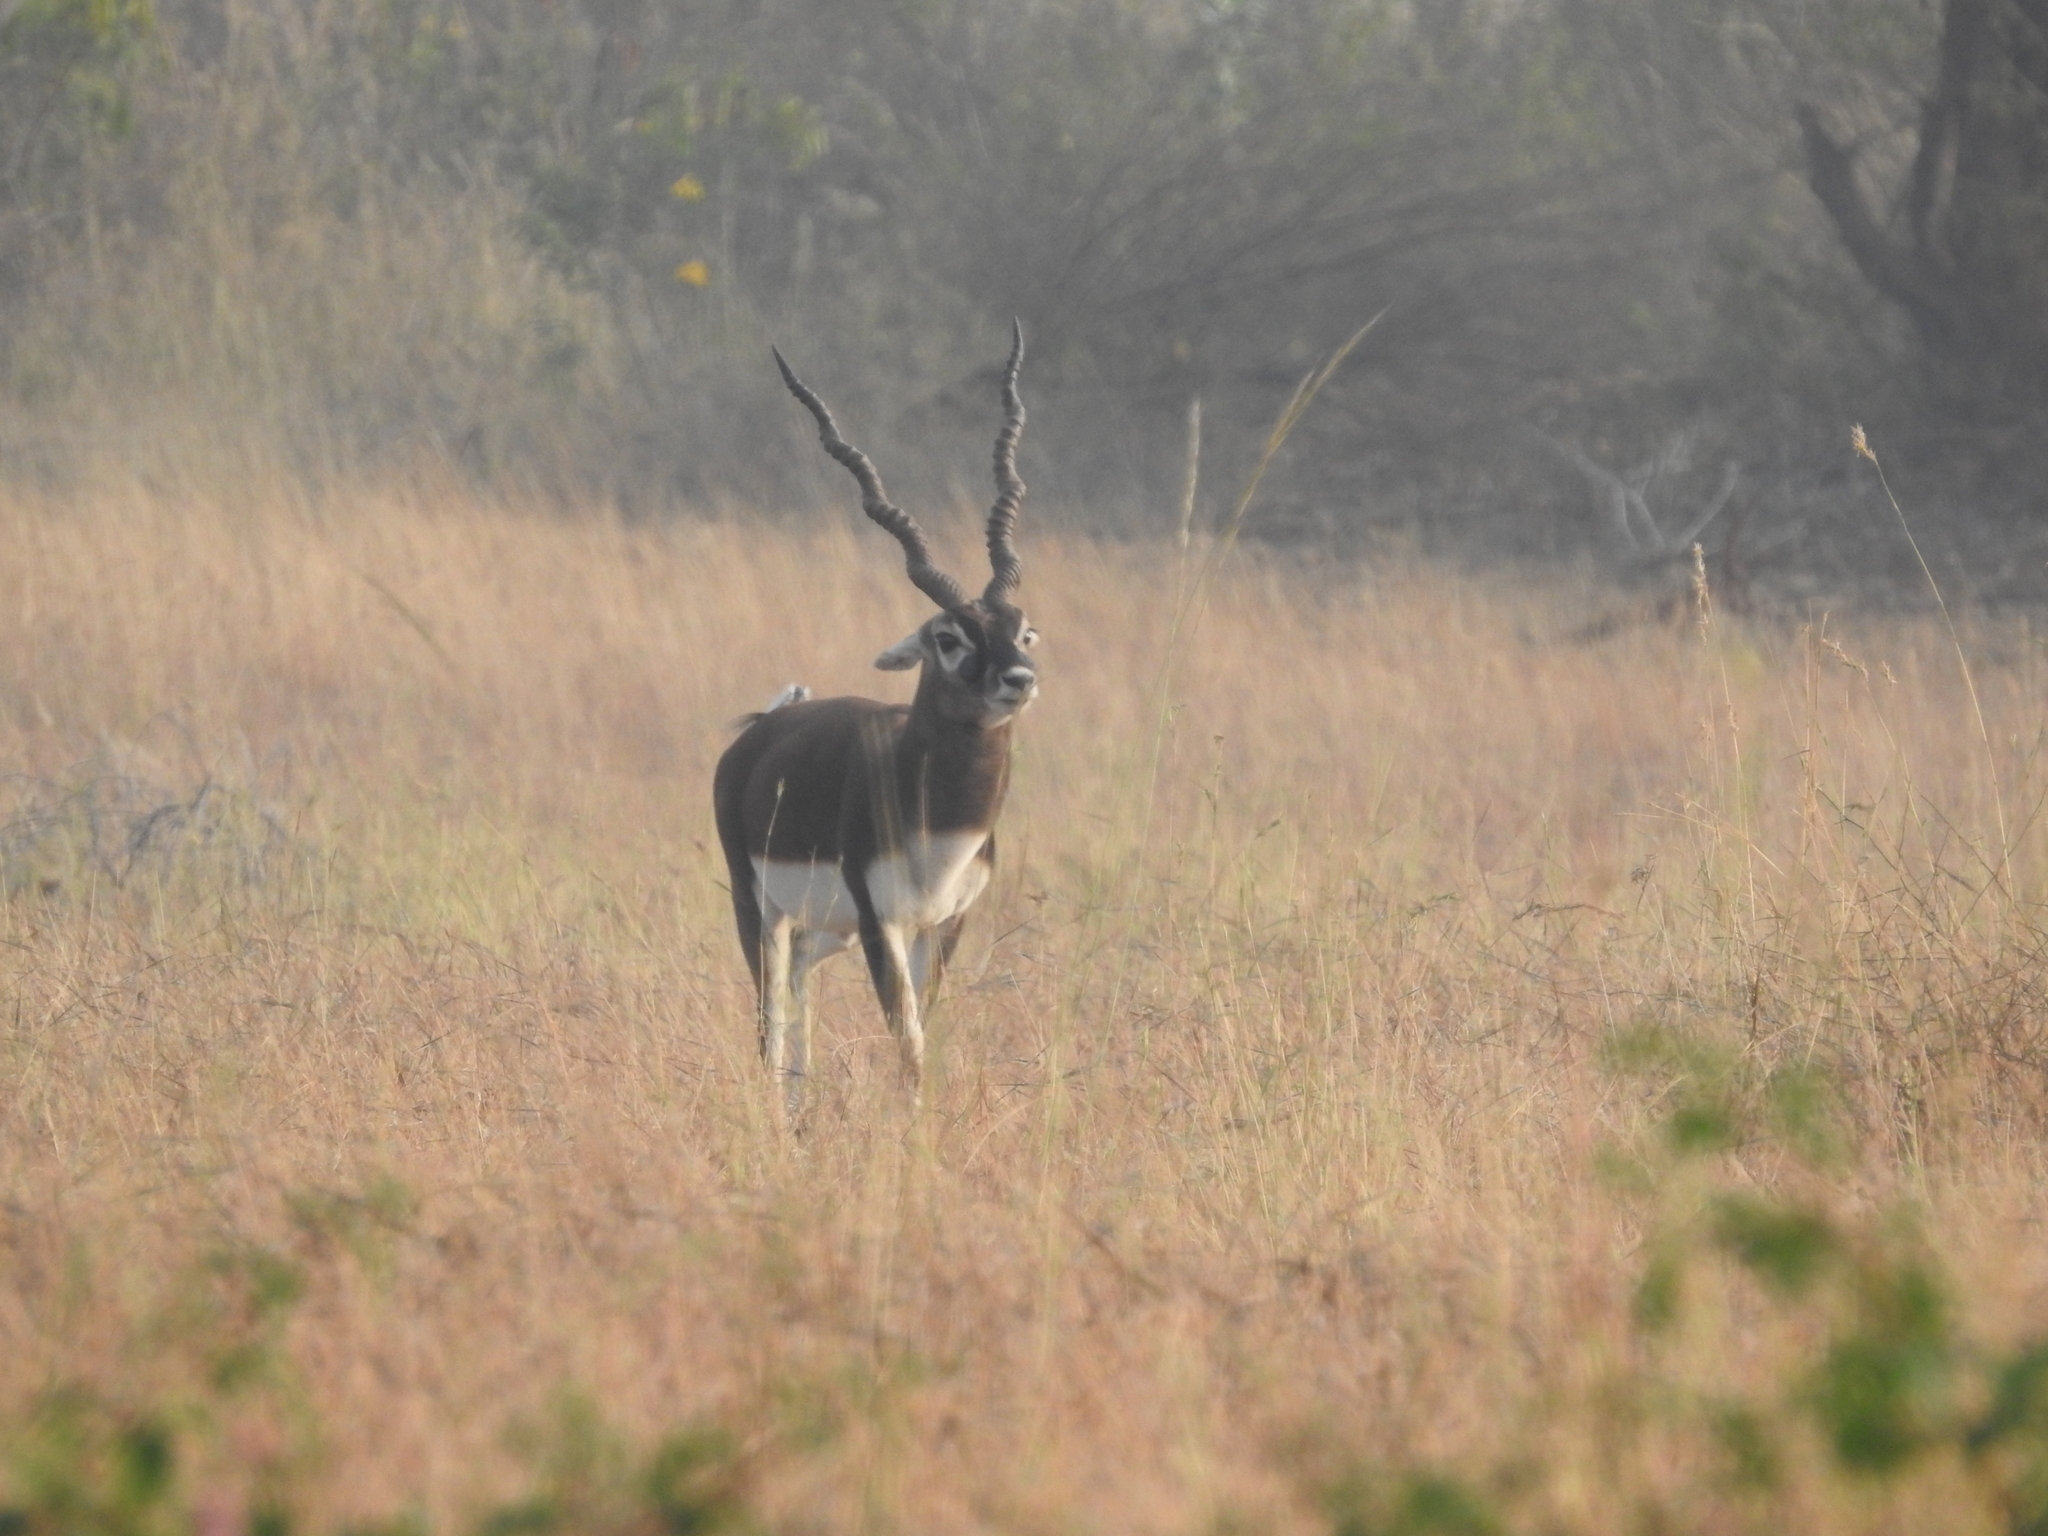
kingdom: Animalia
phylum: Chordata
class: Mammalia
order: Artiodactyla
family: Bovidae
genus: Antilope
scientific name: Antilope cervicapra
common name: Blackbuck
